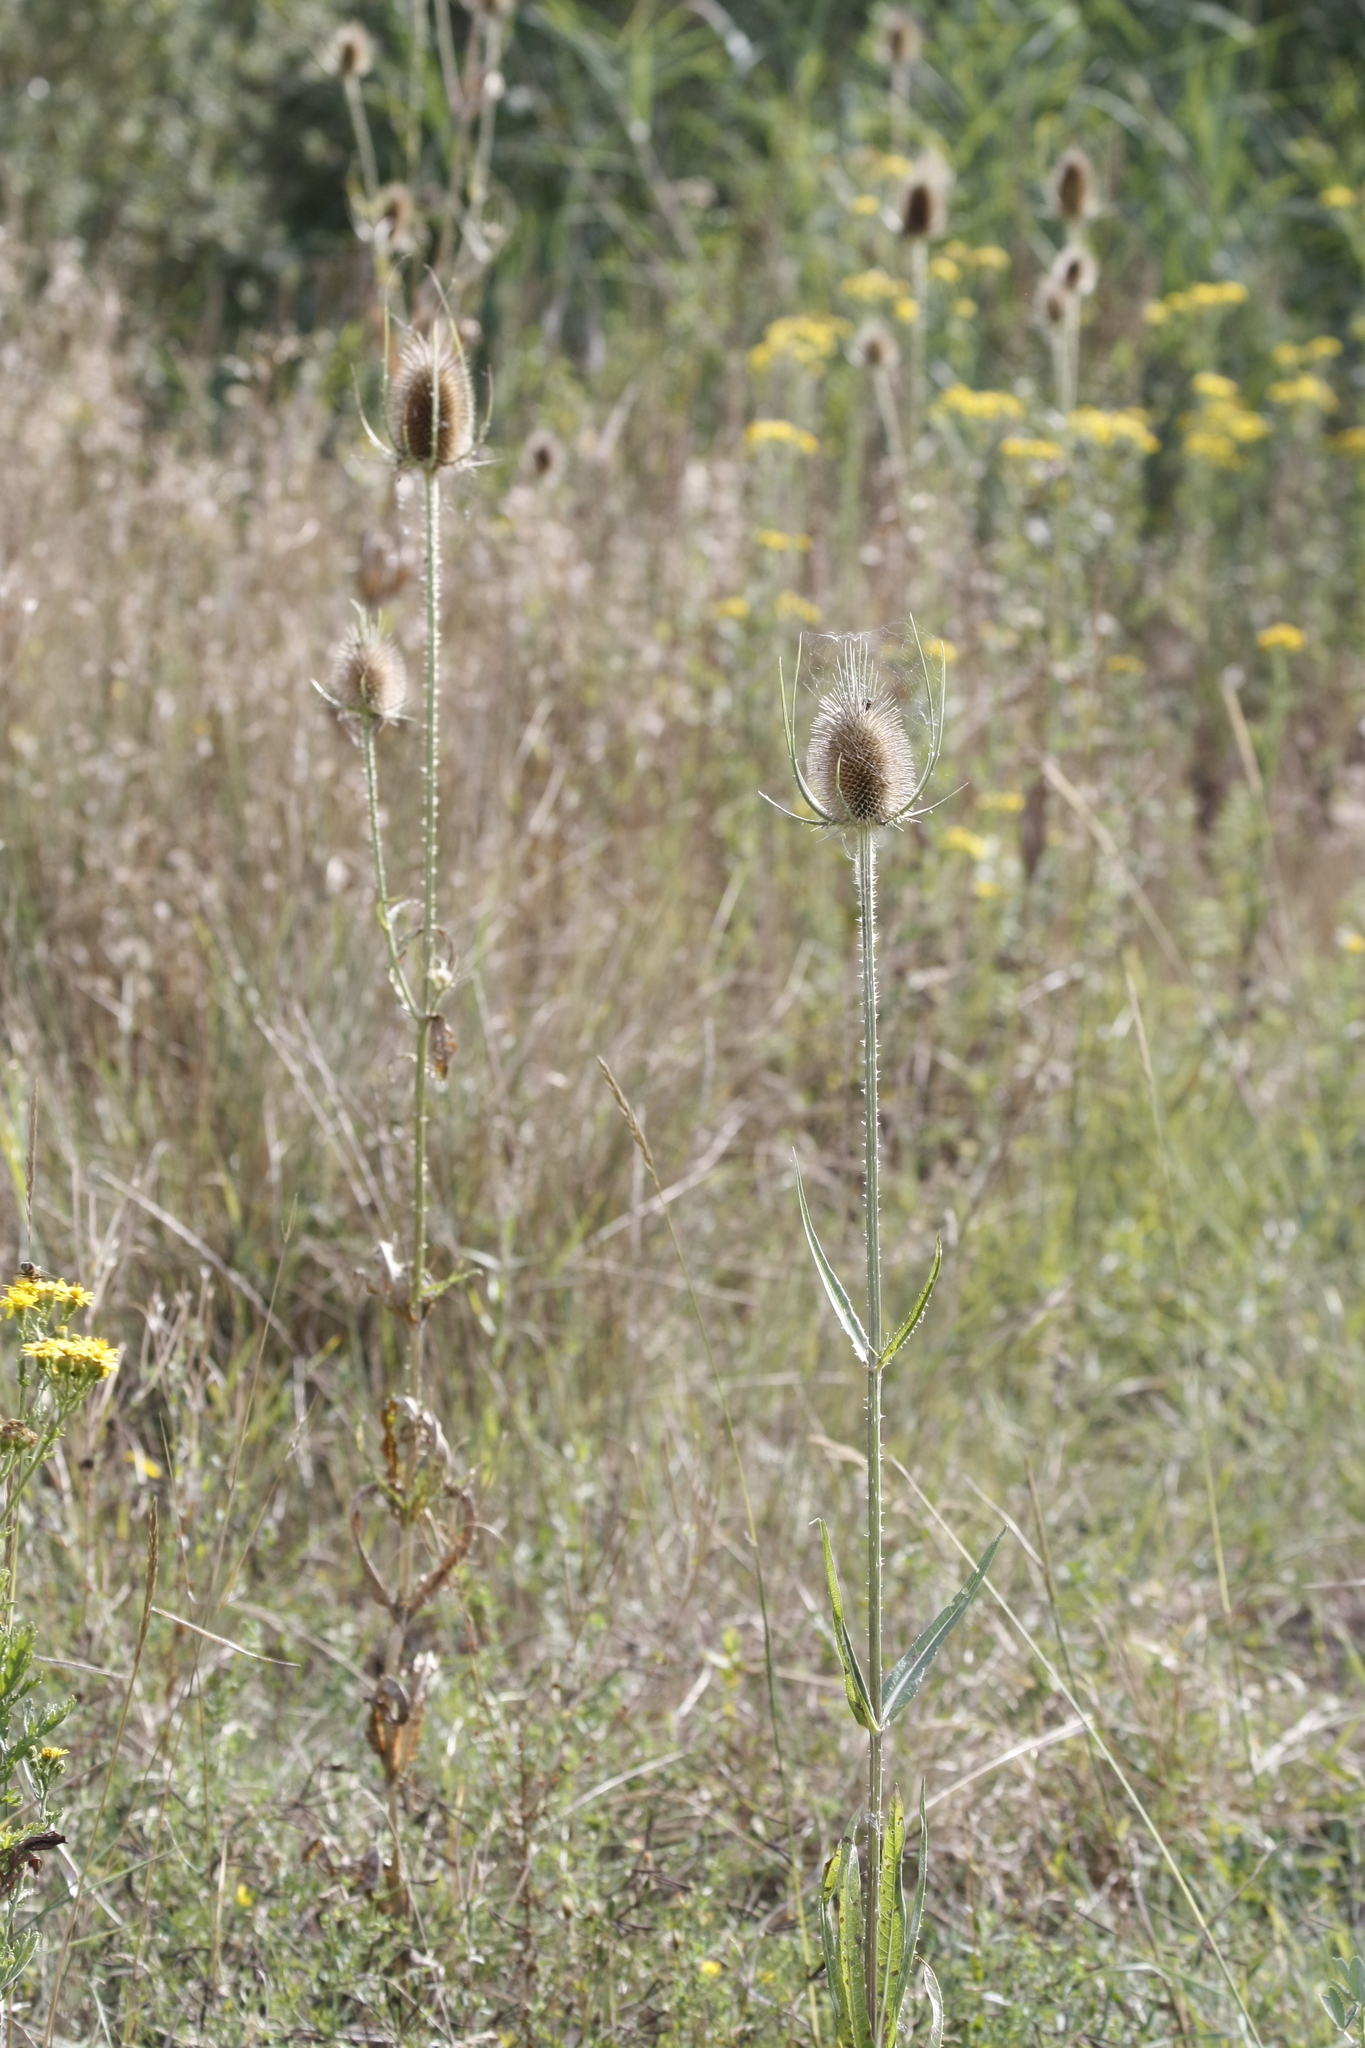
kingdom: Plantae
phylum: Tracheophyta
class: Magnoliopsida
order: Dipsacales
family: Caprifoliaceae
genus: Dipsacus
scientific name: Dipsacus fullonum
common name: Teasel
